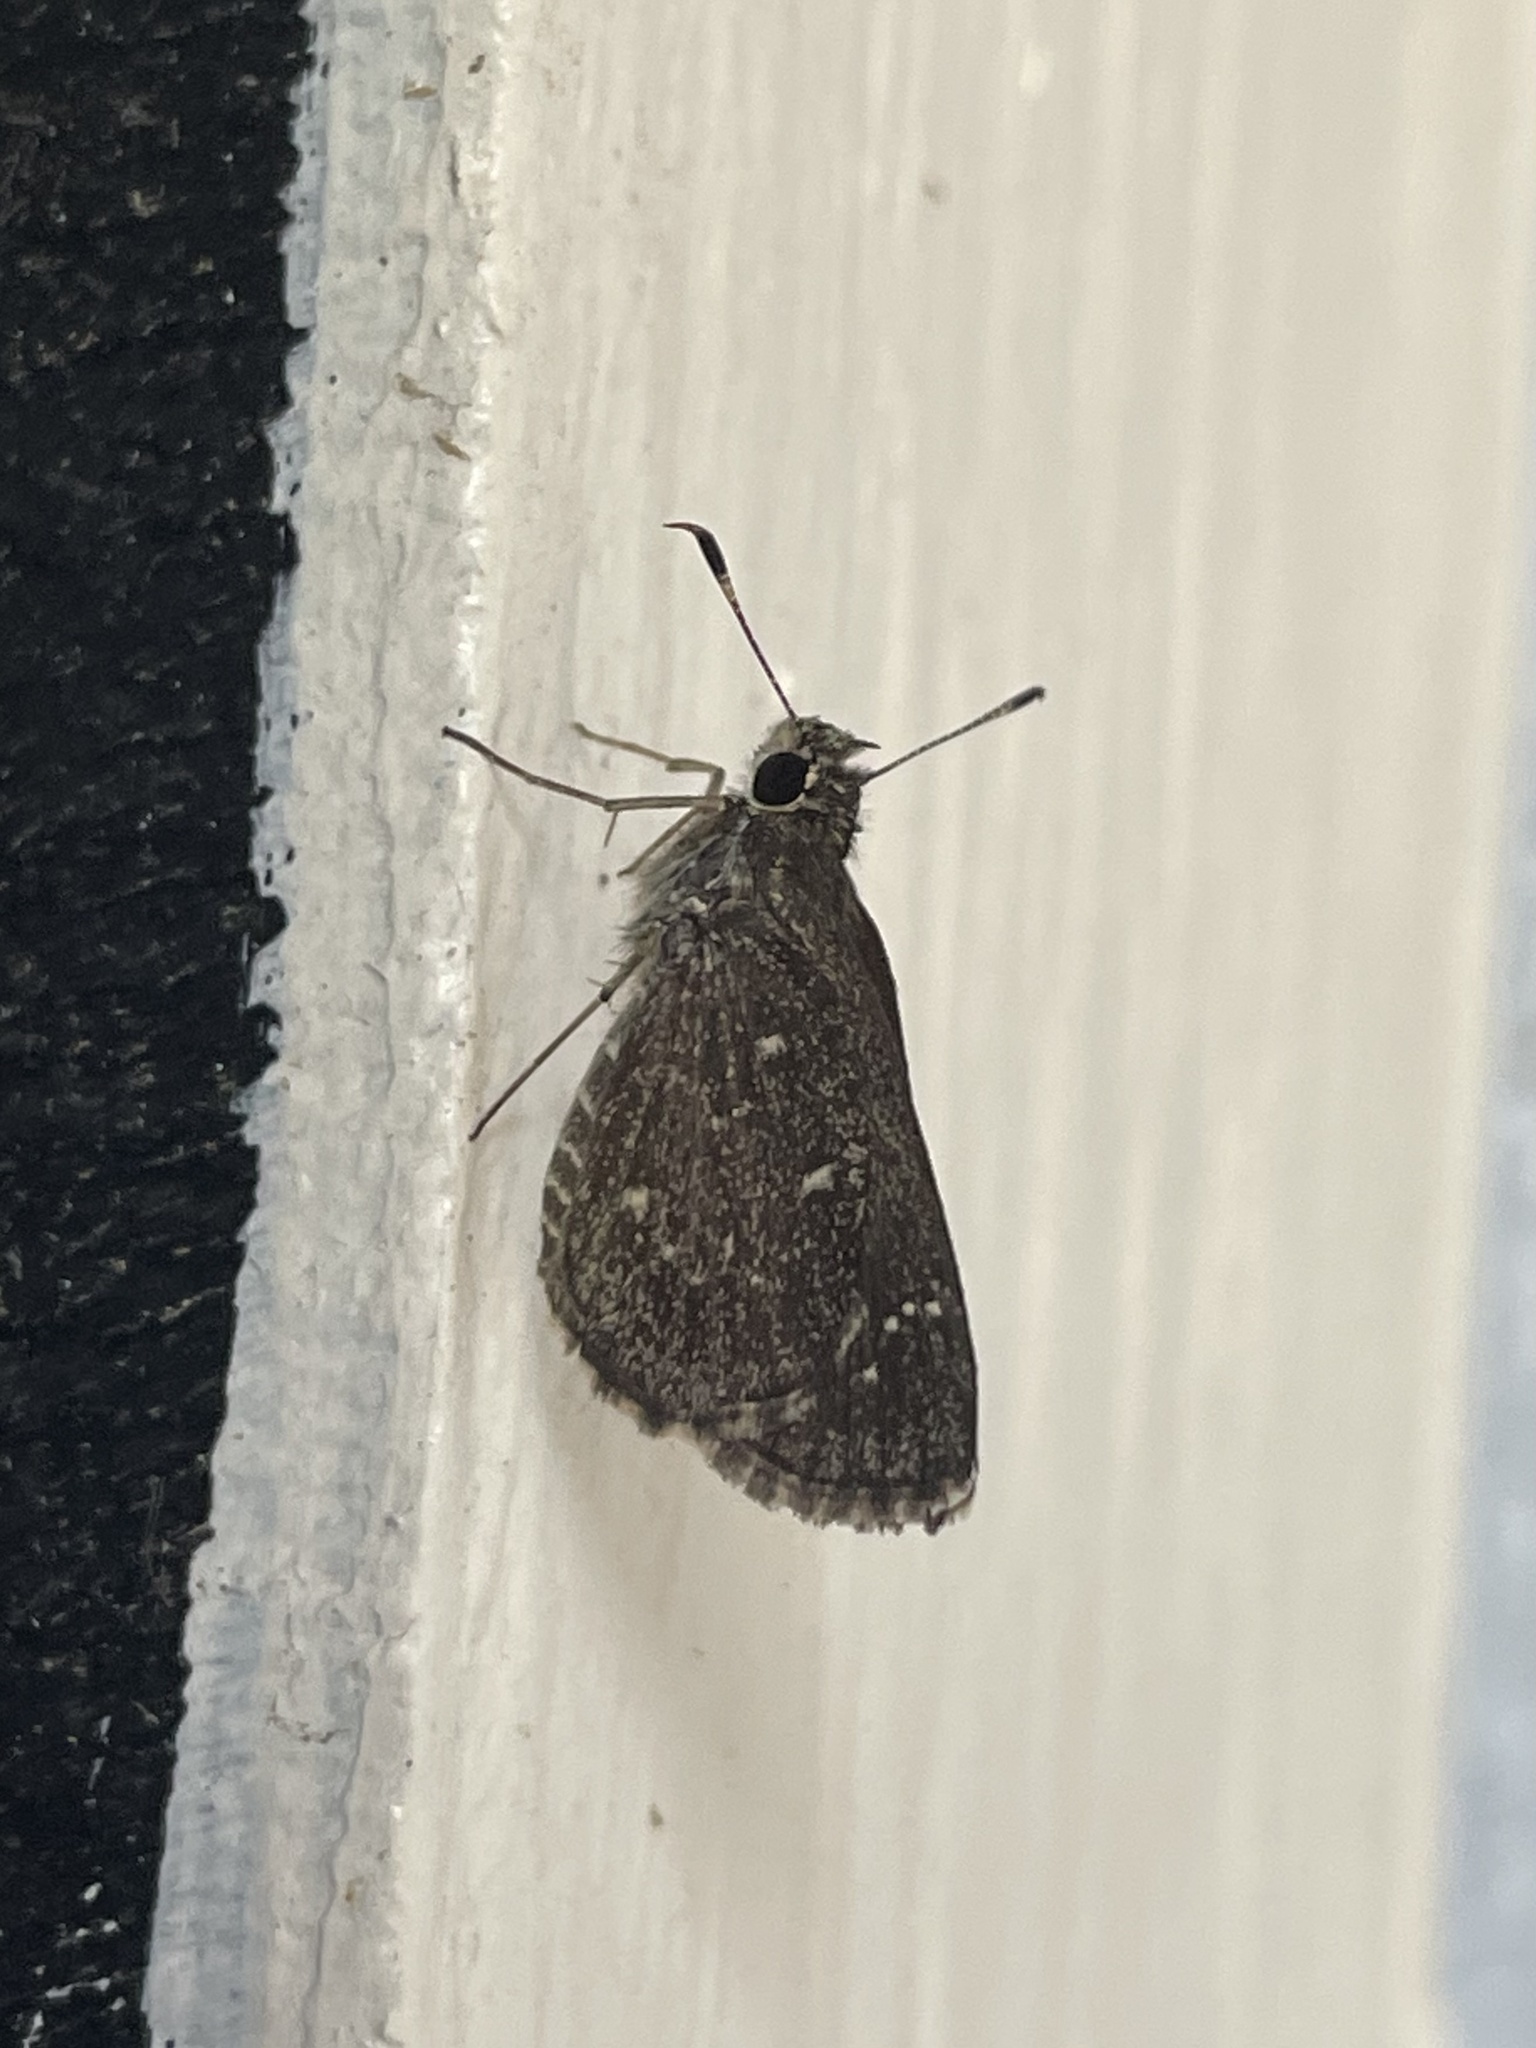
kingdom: Animalia
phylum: Arthropoda
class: Insecta
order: Lepidoptera
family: Hesperiidae
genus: Mastor
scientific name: Mastor celia
